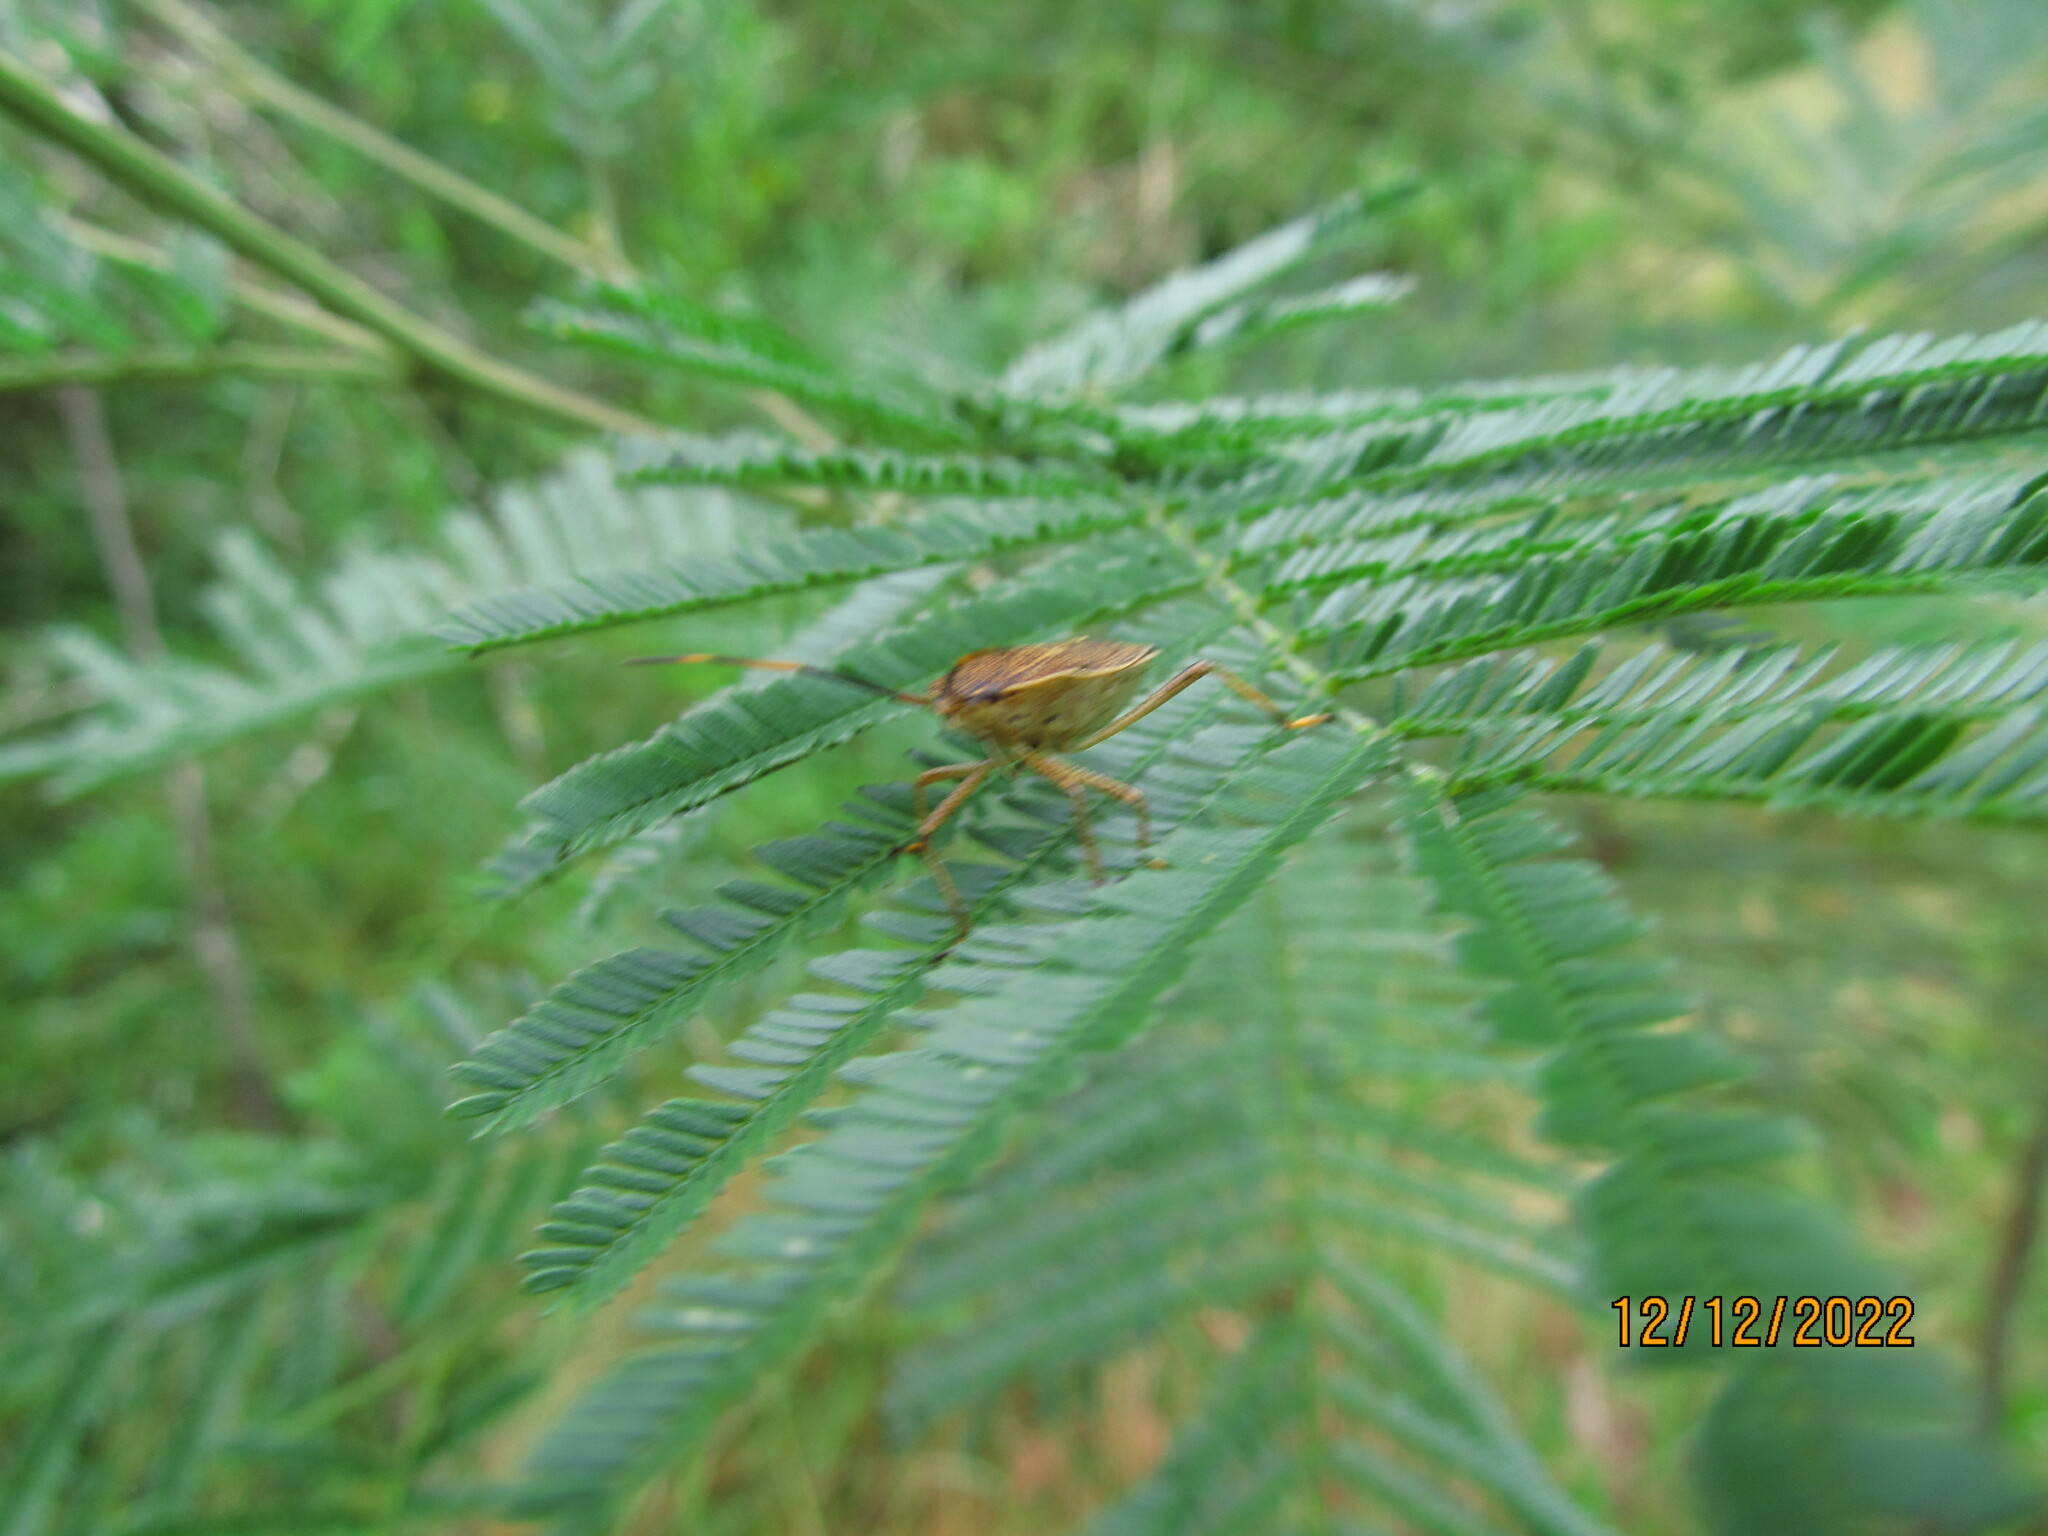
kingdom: Animalia
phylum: Arthropoda
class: Insecta
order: Hemiptera
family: Pentatomidae
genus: Poecilometis
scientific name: Poecilometis
